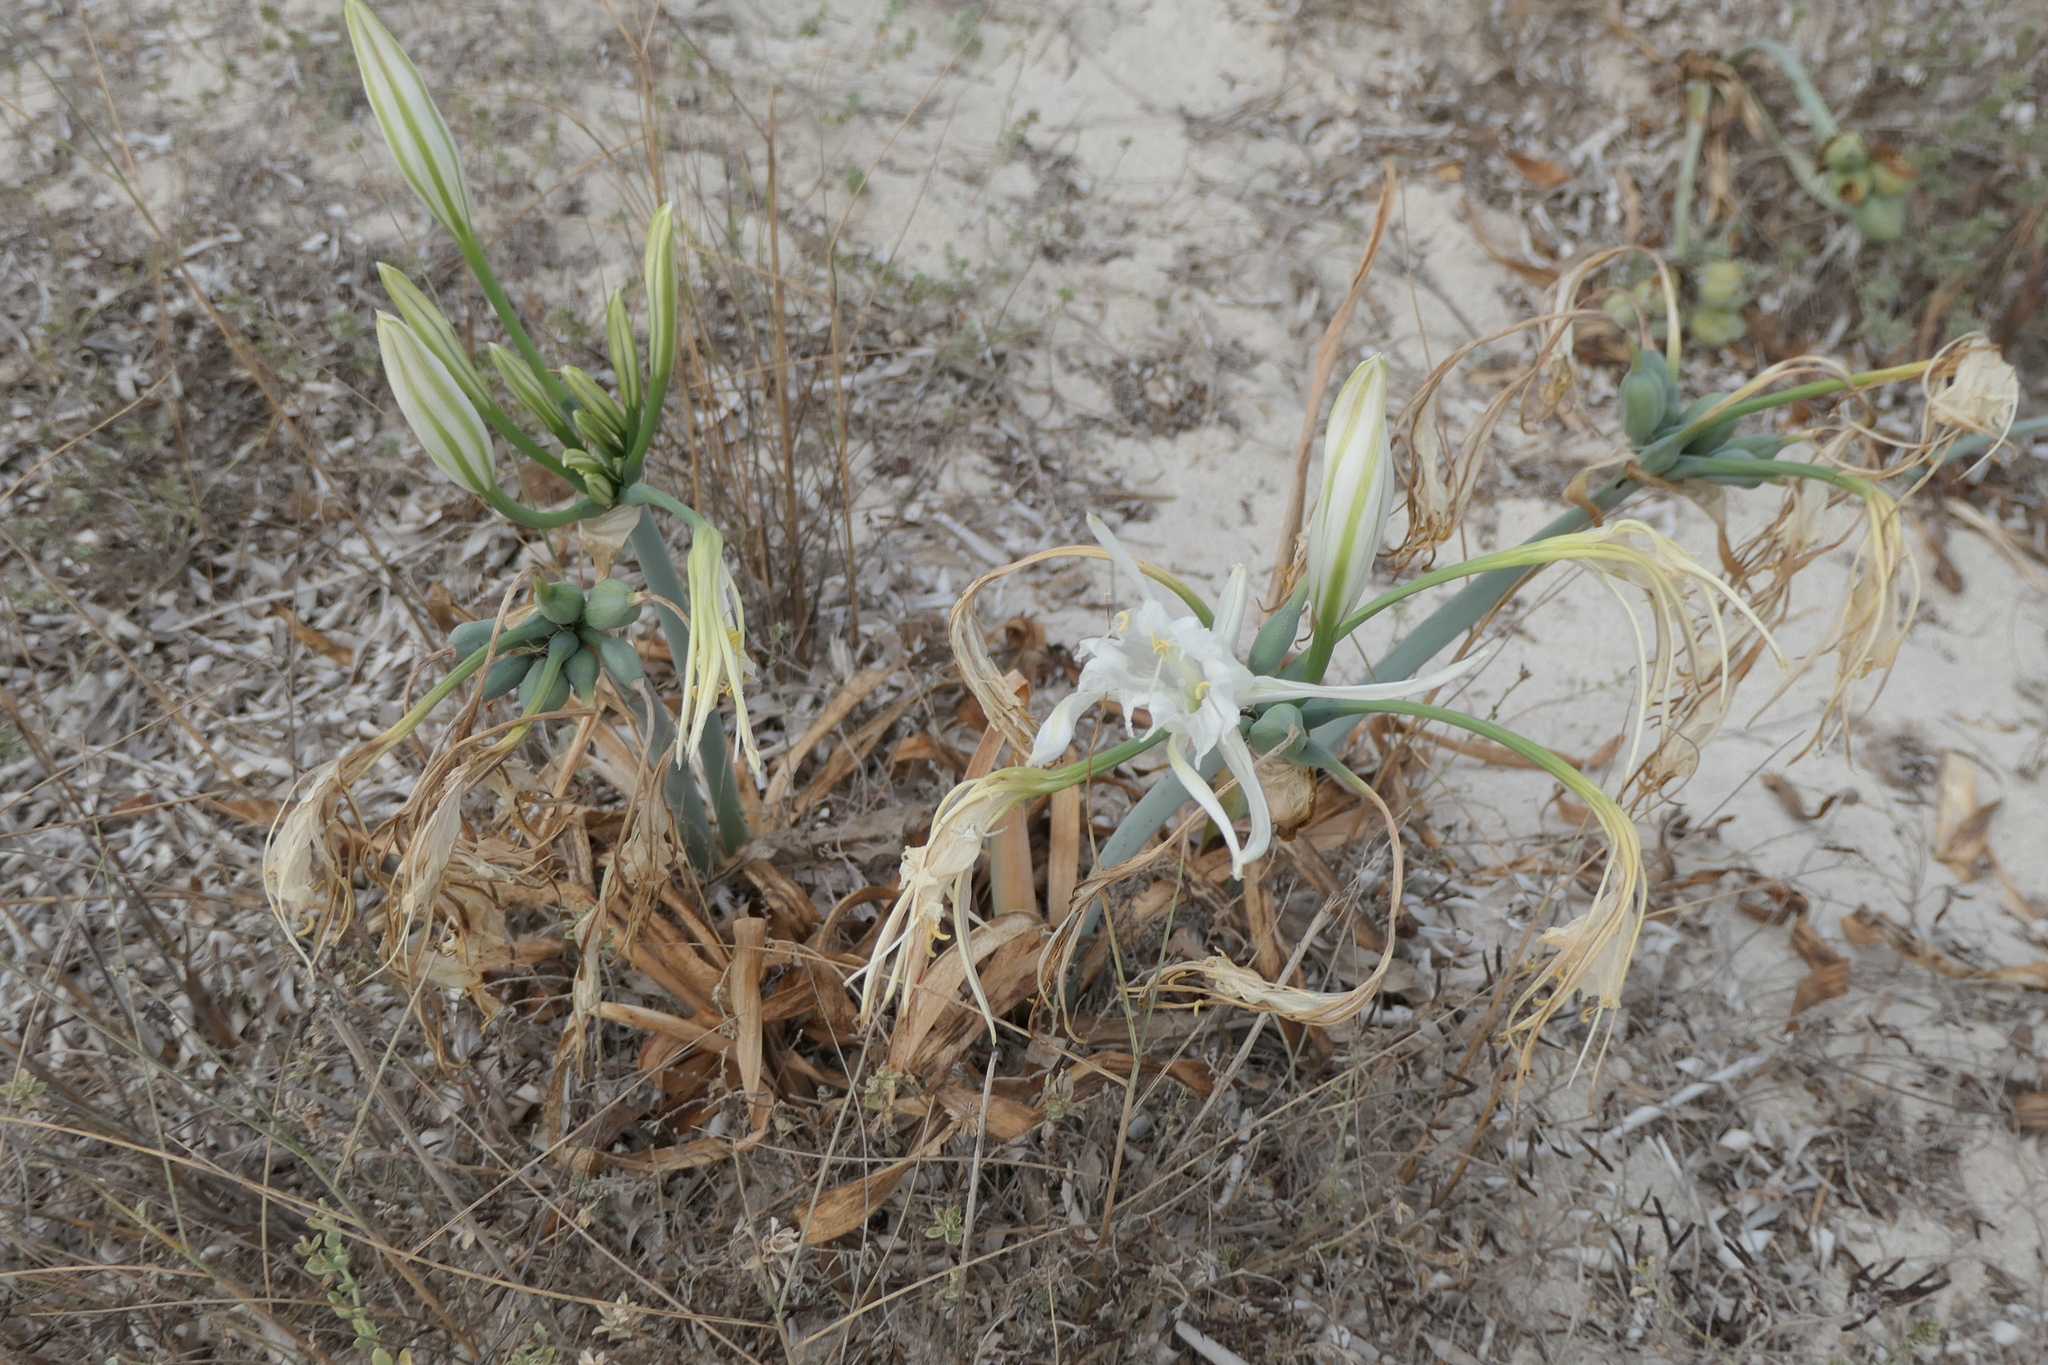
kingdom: Plantae
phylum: Tracheophyta
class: Liliopsida
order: Asparagales
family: Amaryllidaceae
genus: Pancratium
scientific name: Pancratium maritimum
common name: Sea-daffodil
